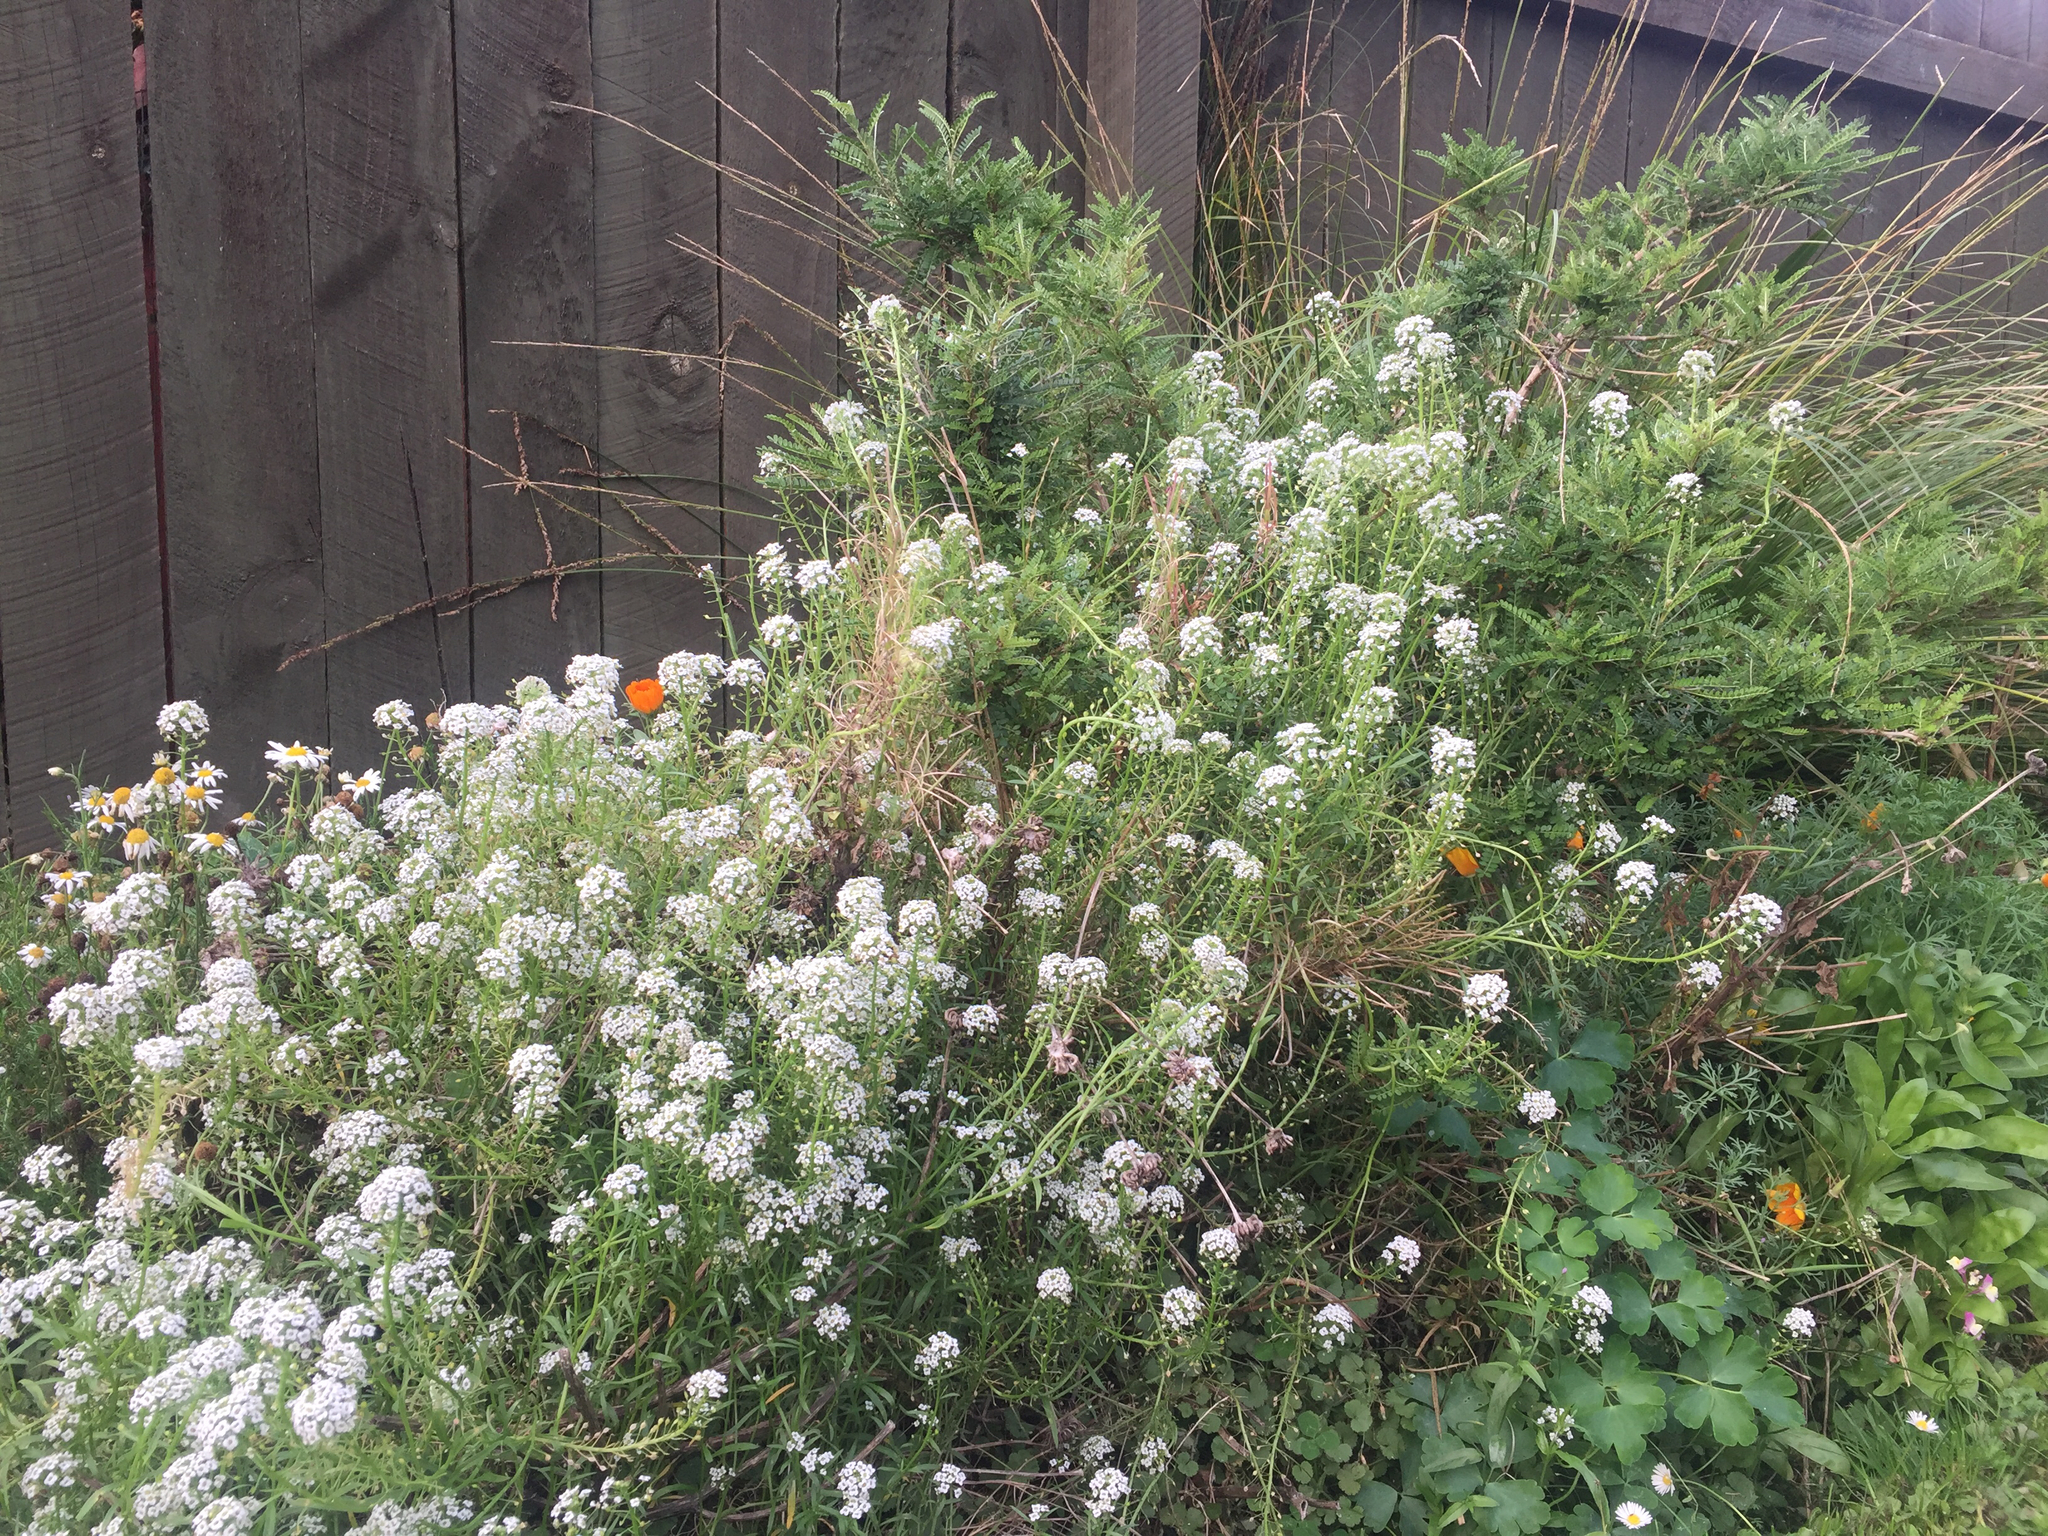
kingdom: Plantae
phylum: Tracheophyta
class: Magnoliopsida
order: Brassicales
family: Brassicaceae
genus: Lobularia
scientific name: Lobularia maritima
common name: Sweet alison
